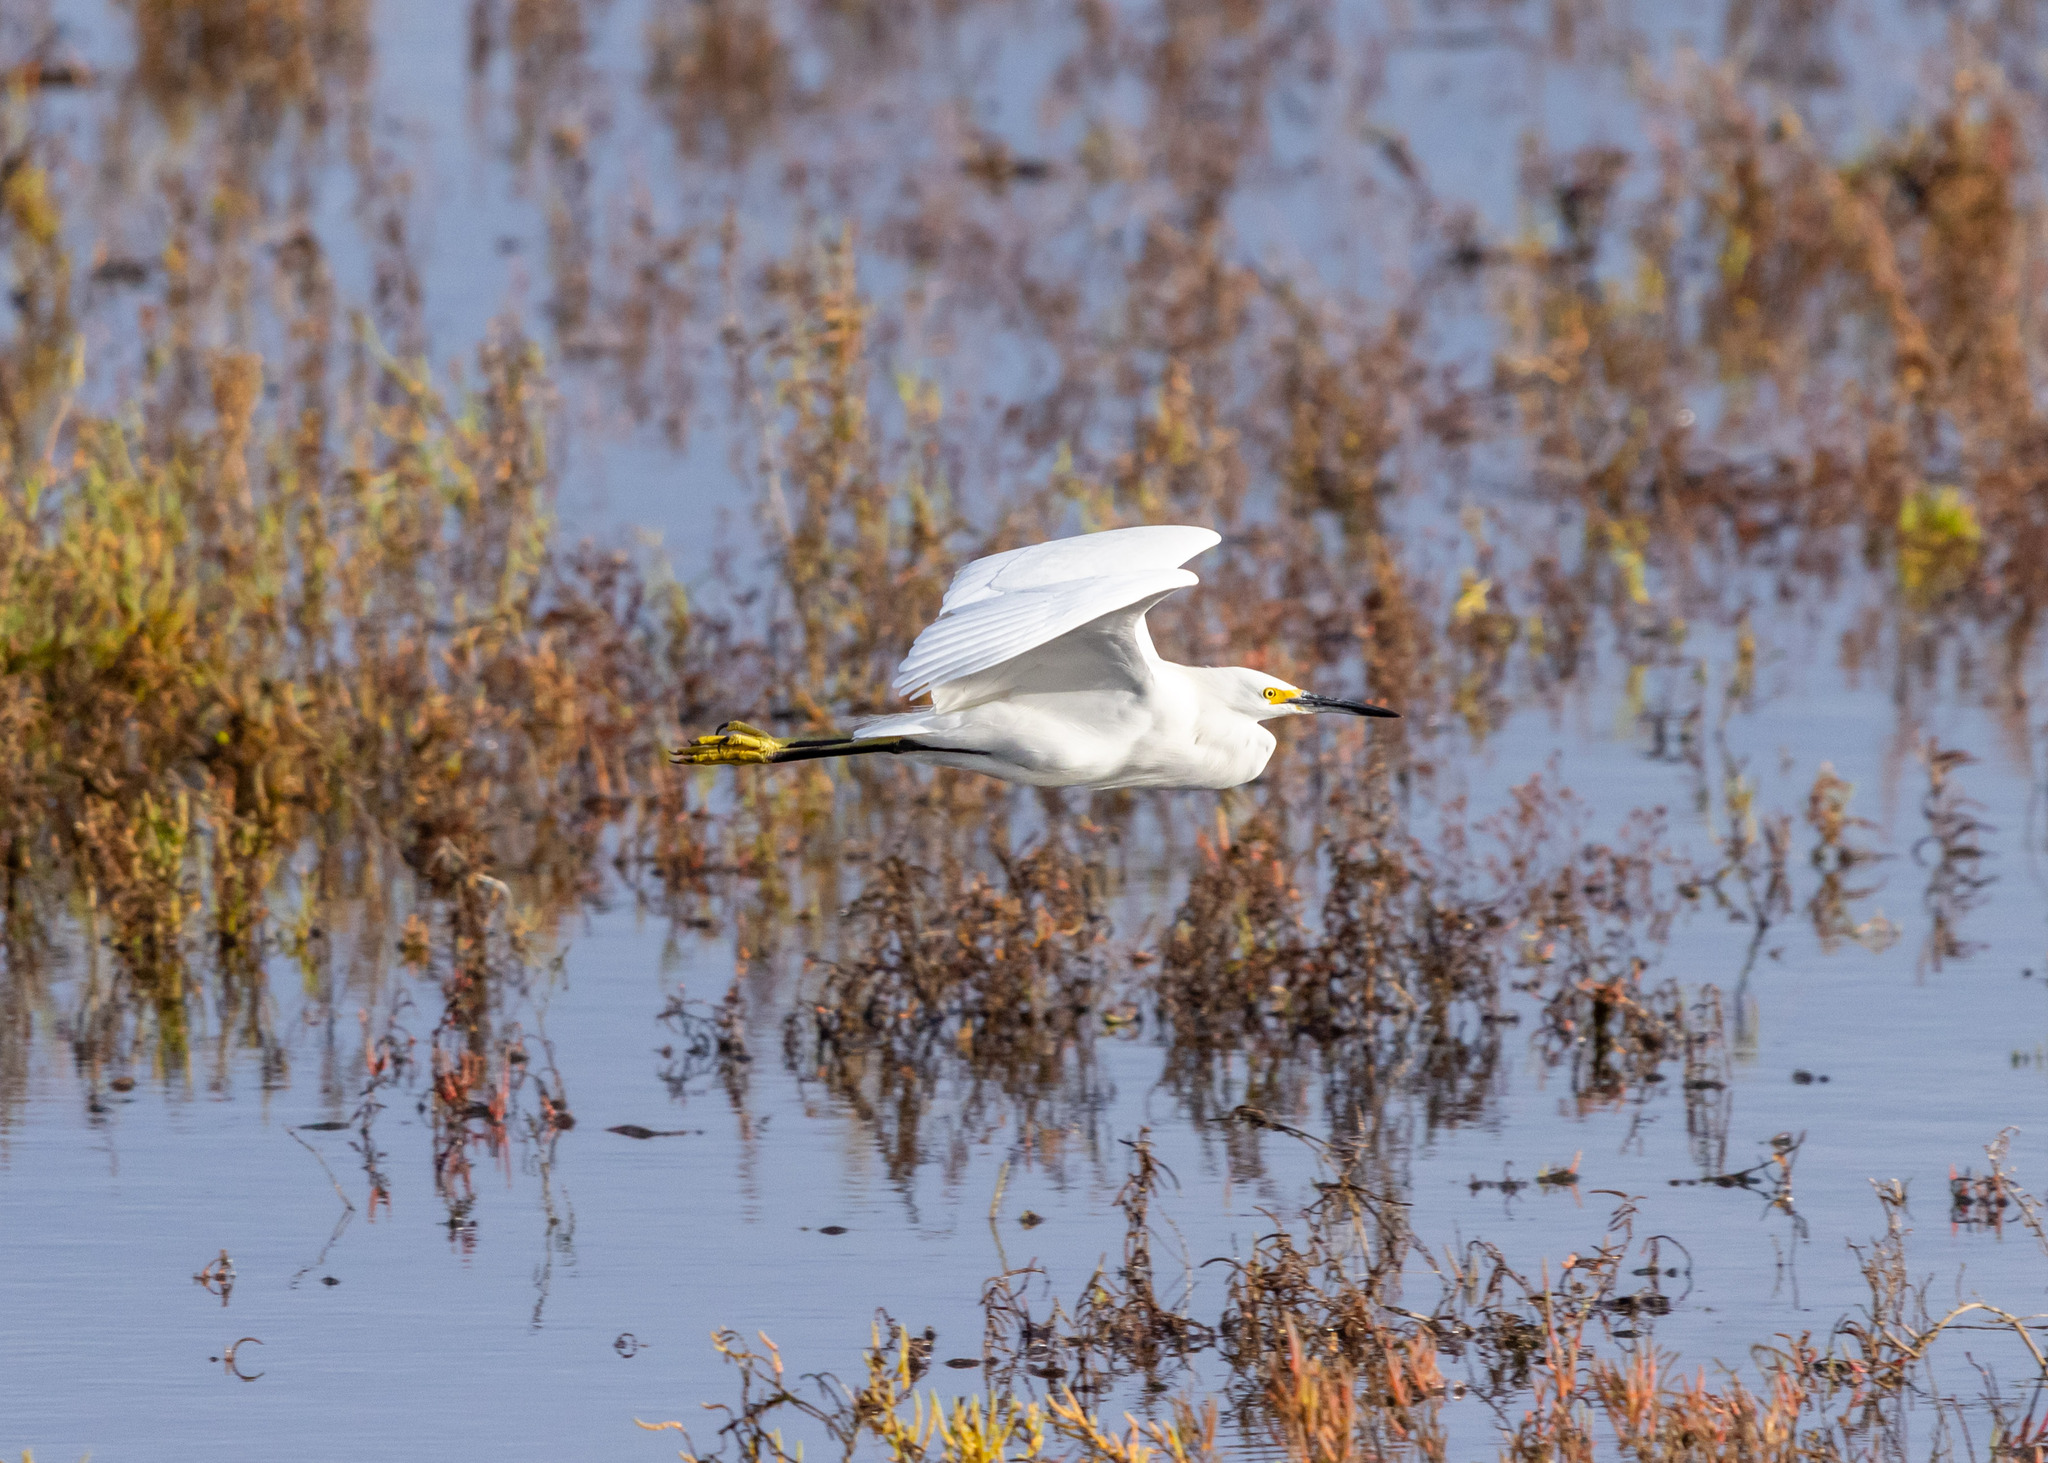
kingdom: Animalia
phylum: Chordata
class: Aves
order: Pelecaniformes
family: Ardeidae
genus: Egretta
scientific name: Egretta thula
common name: Snowy egret
